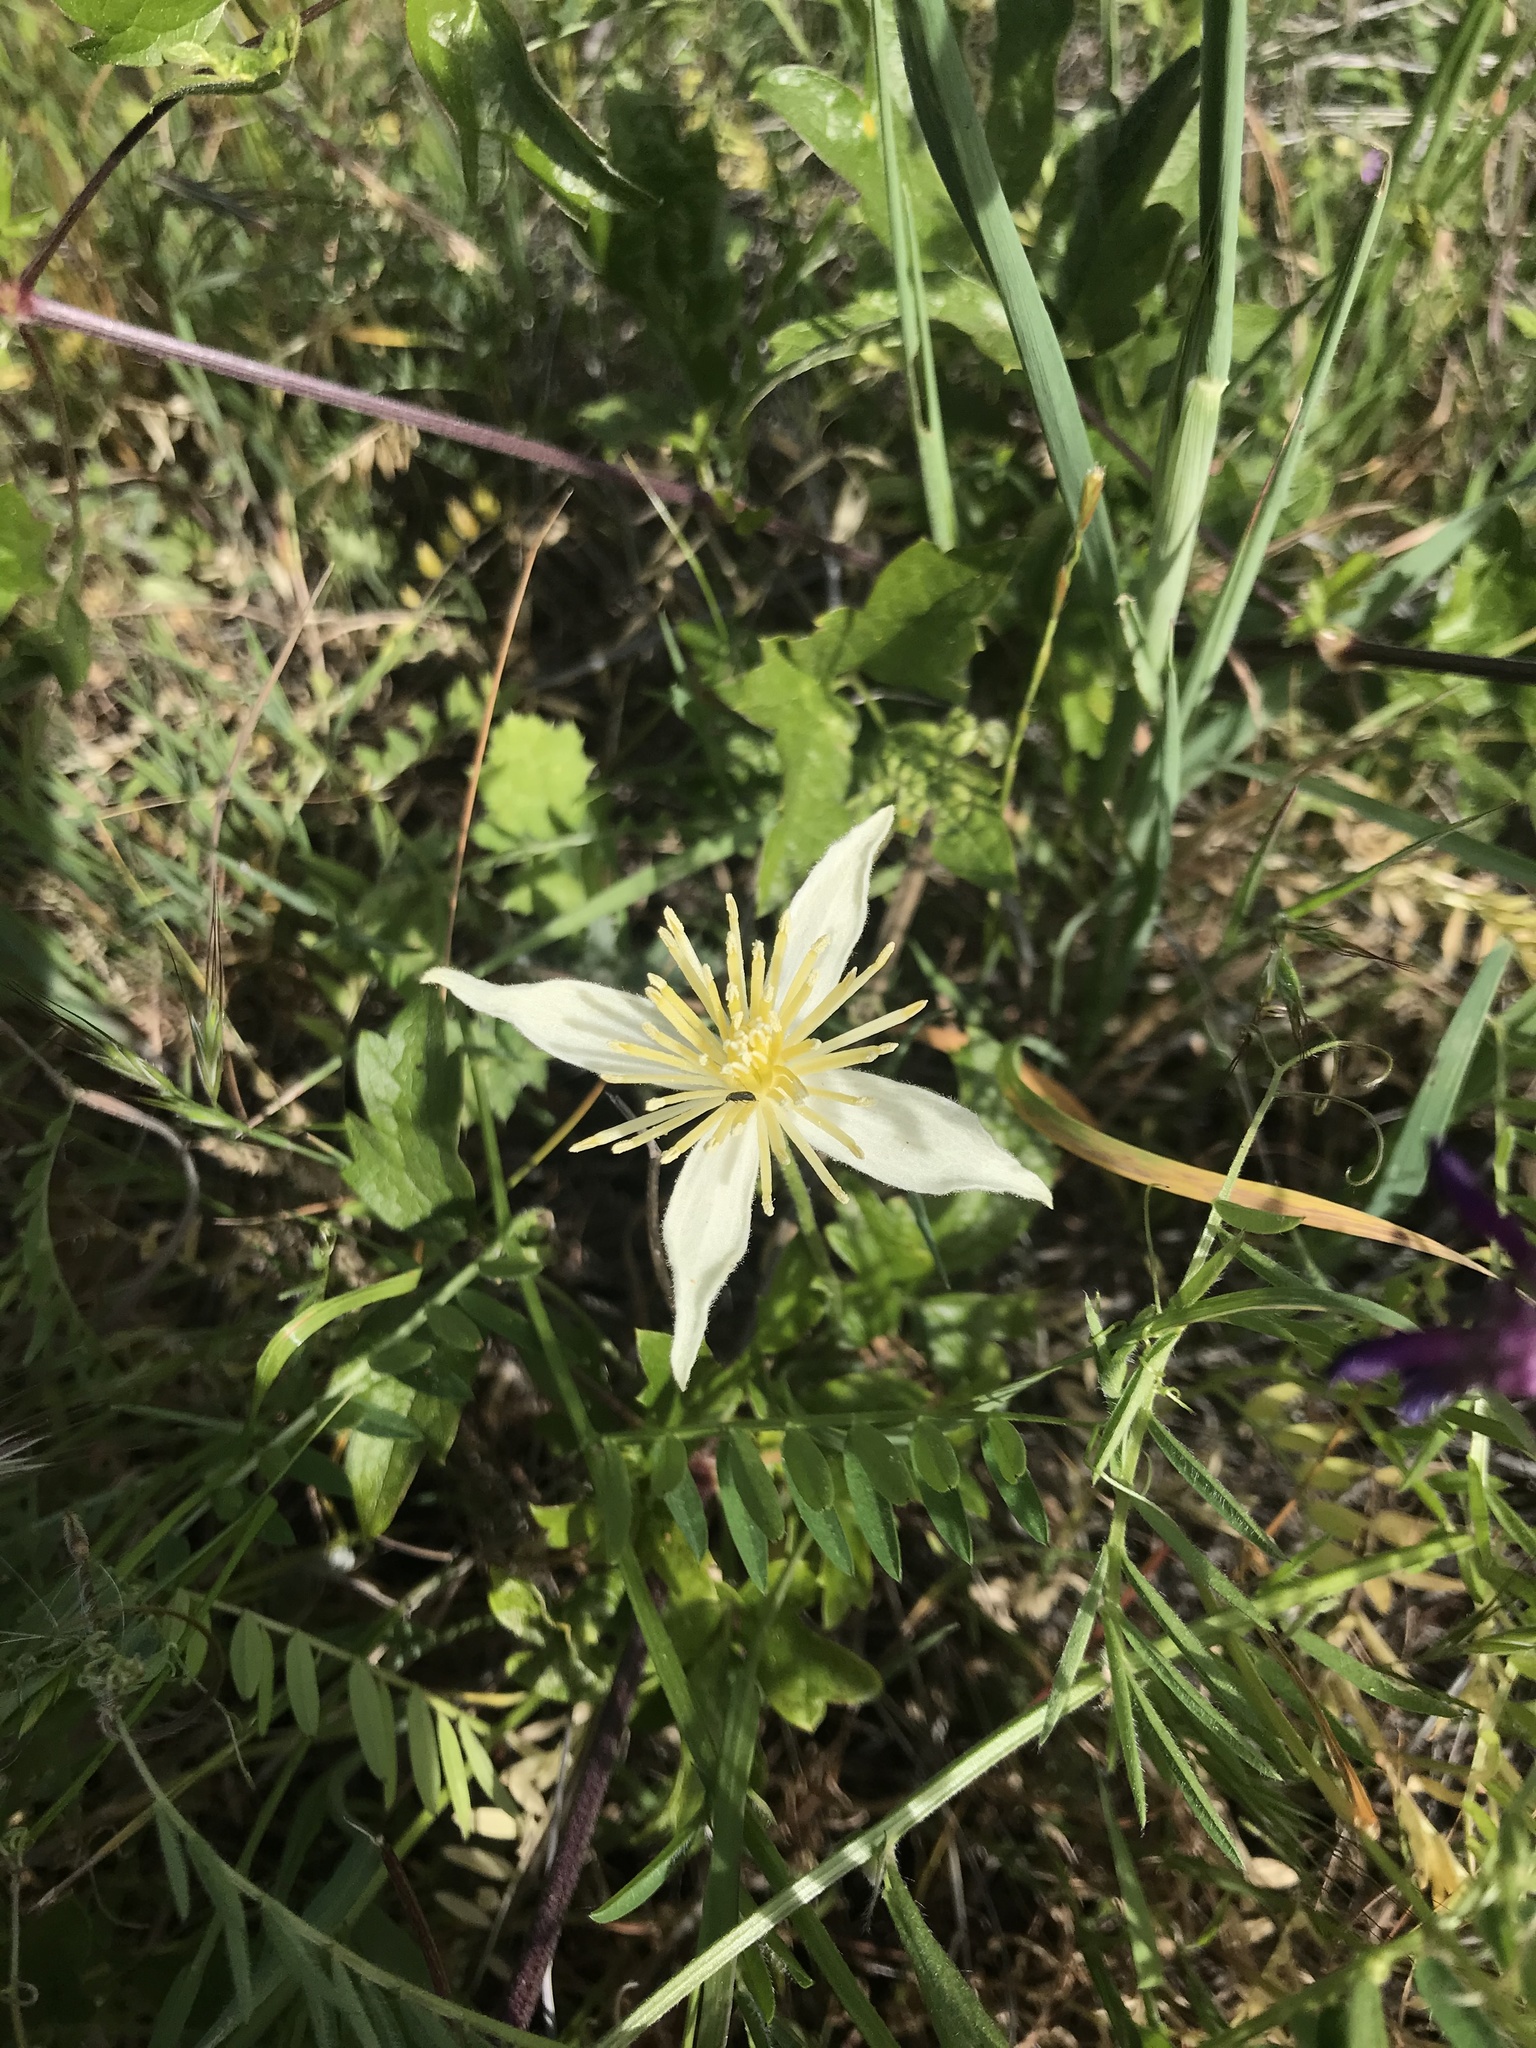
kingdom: Plantae
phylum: Tracheophyta
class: Magnoliopsida
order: Ranunculales
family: Ranunculaceae
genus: Clematis
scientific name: Clematis lasiantha
